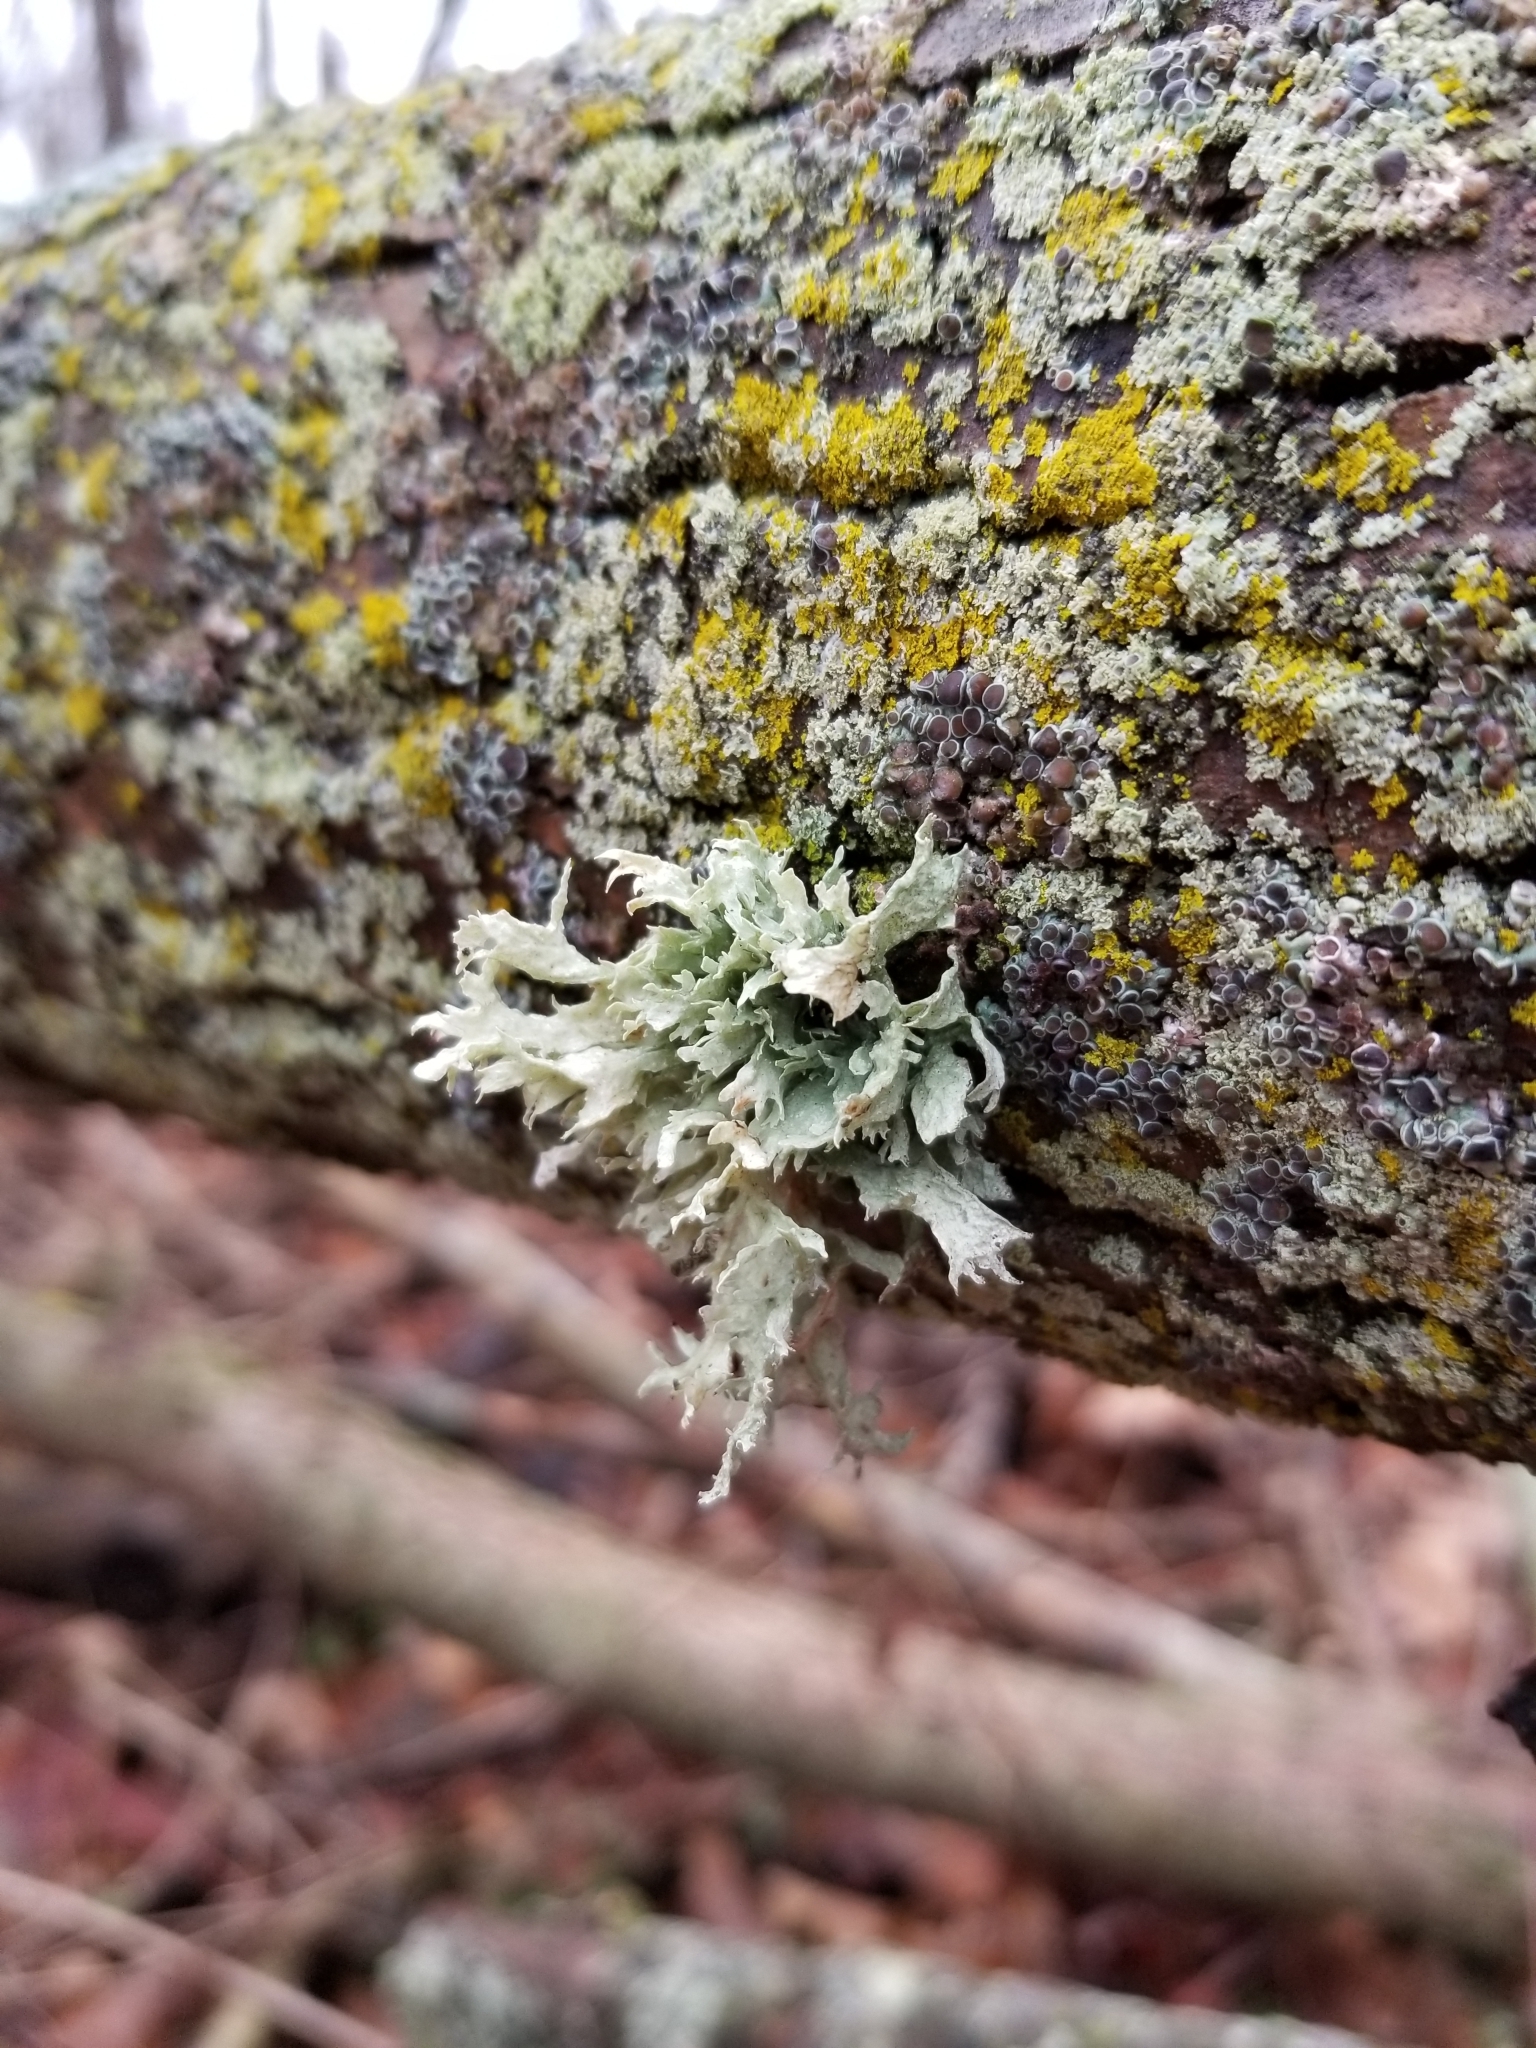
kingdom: Fungi
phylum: Ascomycota
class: Lecanoromycetes
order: Lecanorales
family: Ramalinaceae
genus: Ramalina
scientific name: Ramalina americana
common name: Sinewed bush lichen
